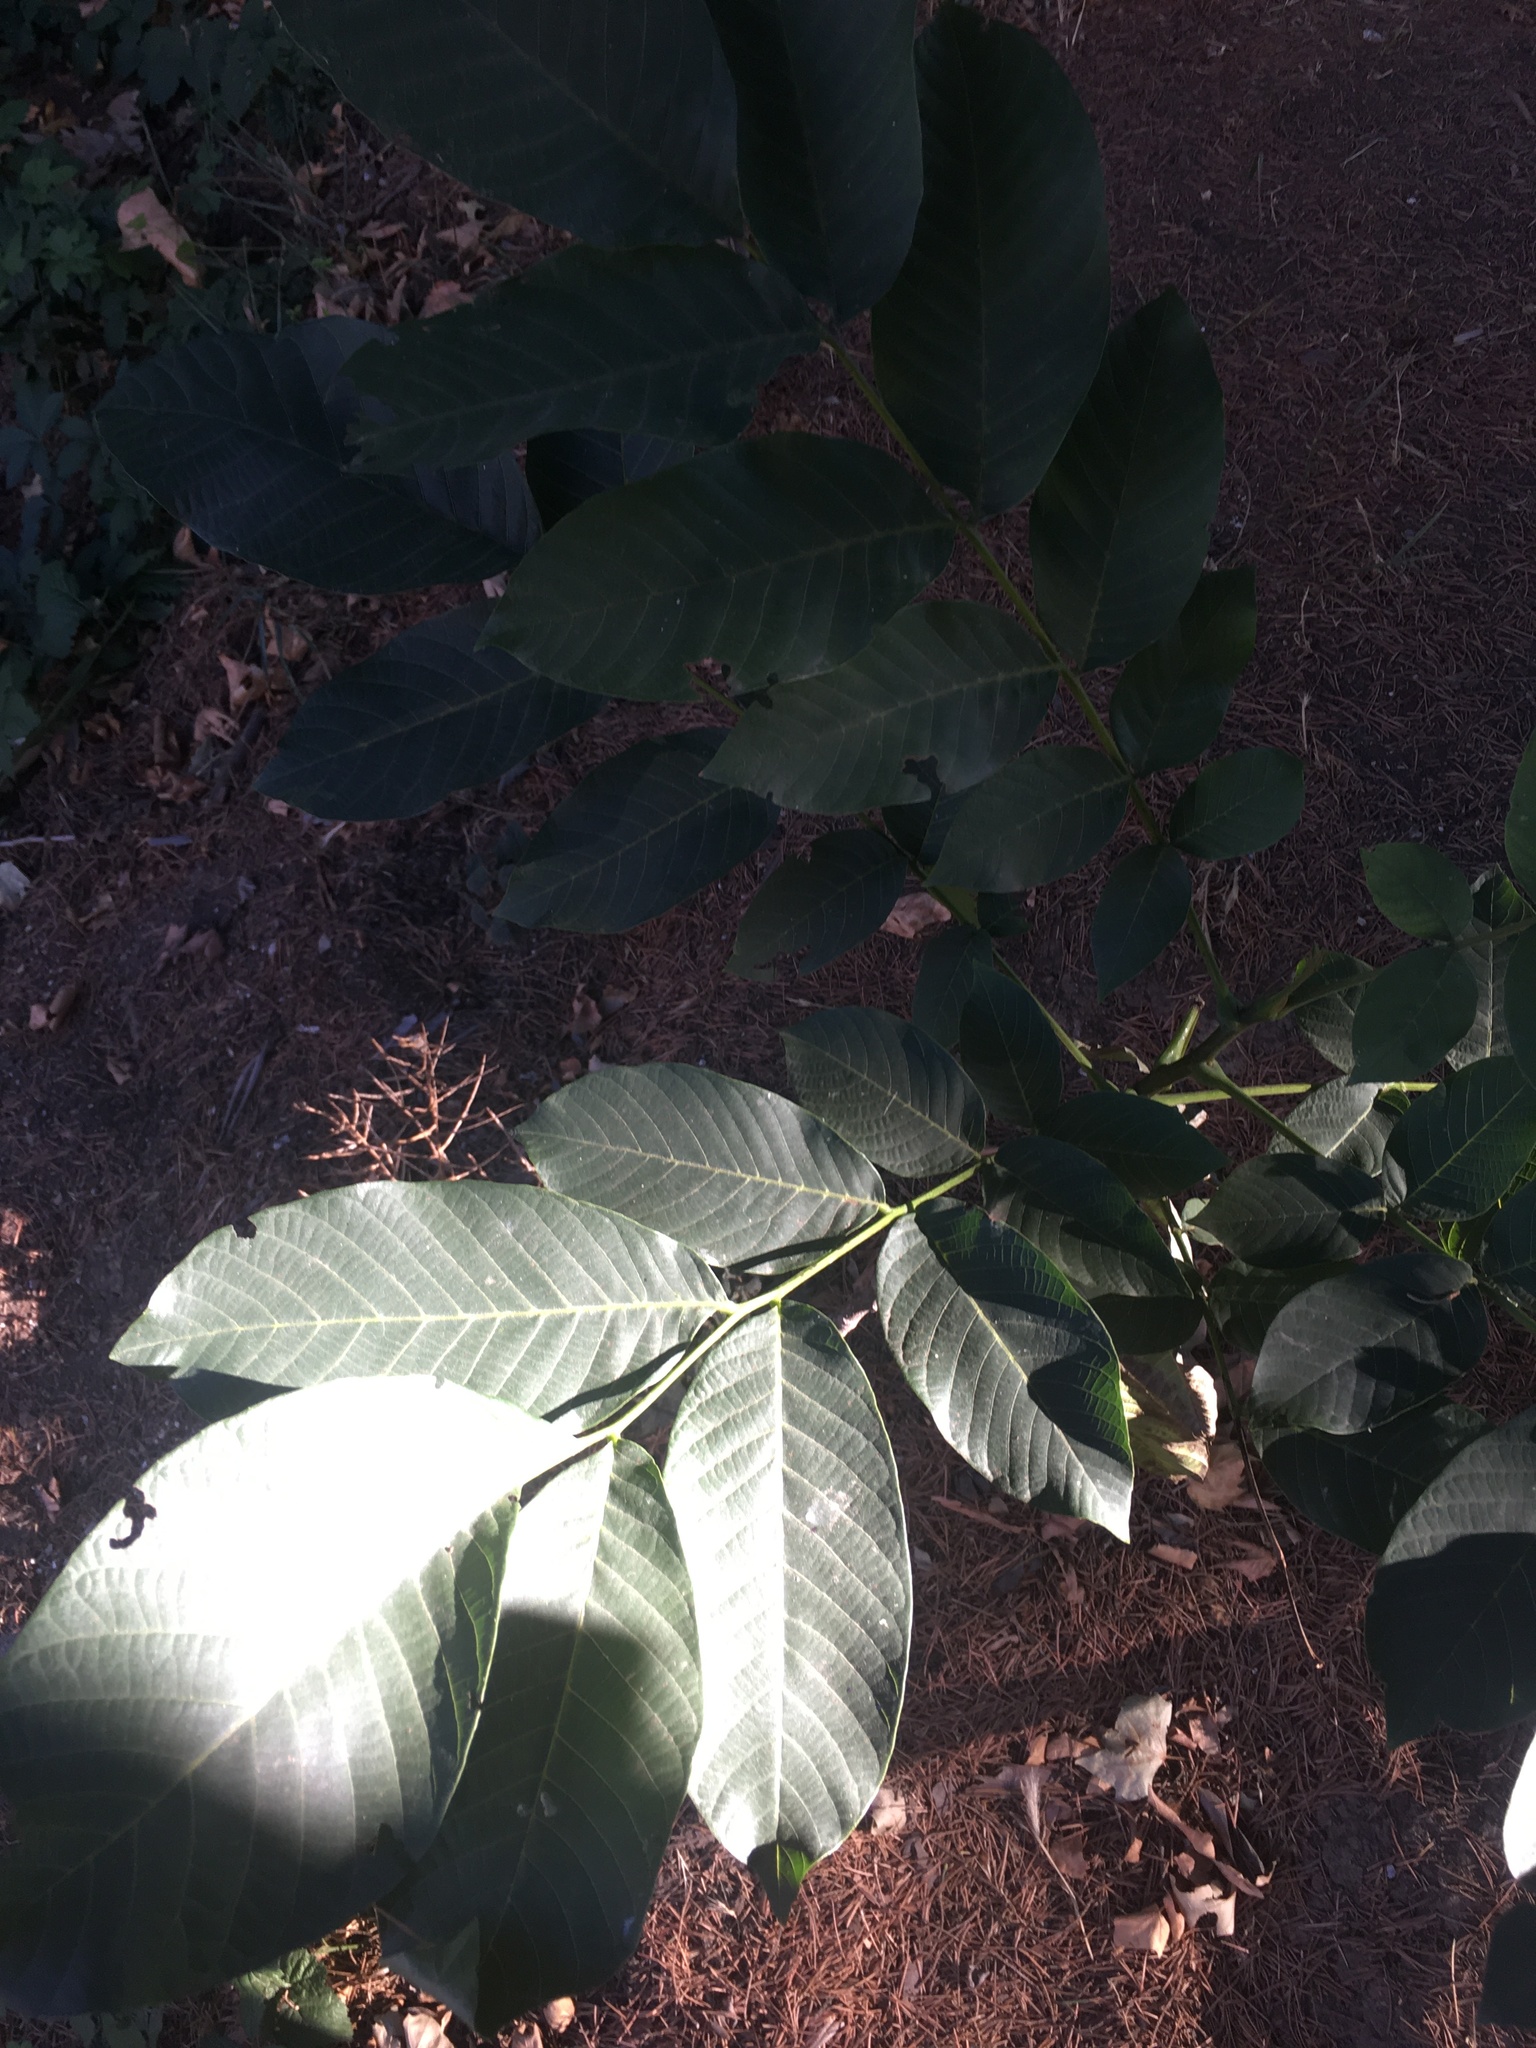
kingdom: Plantae
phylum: Tracheophyta
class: Magnoliopsida
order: Fagales
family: Juglandaceae
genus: Juglans
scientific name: Juglans regia
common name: Walnut
